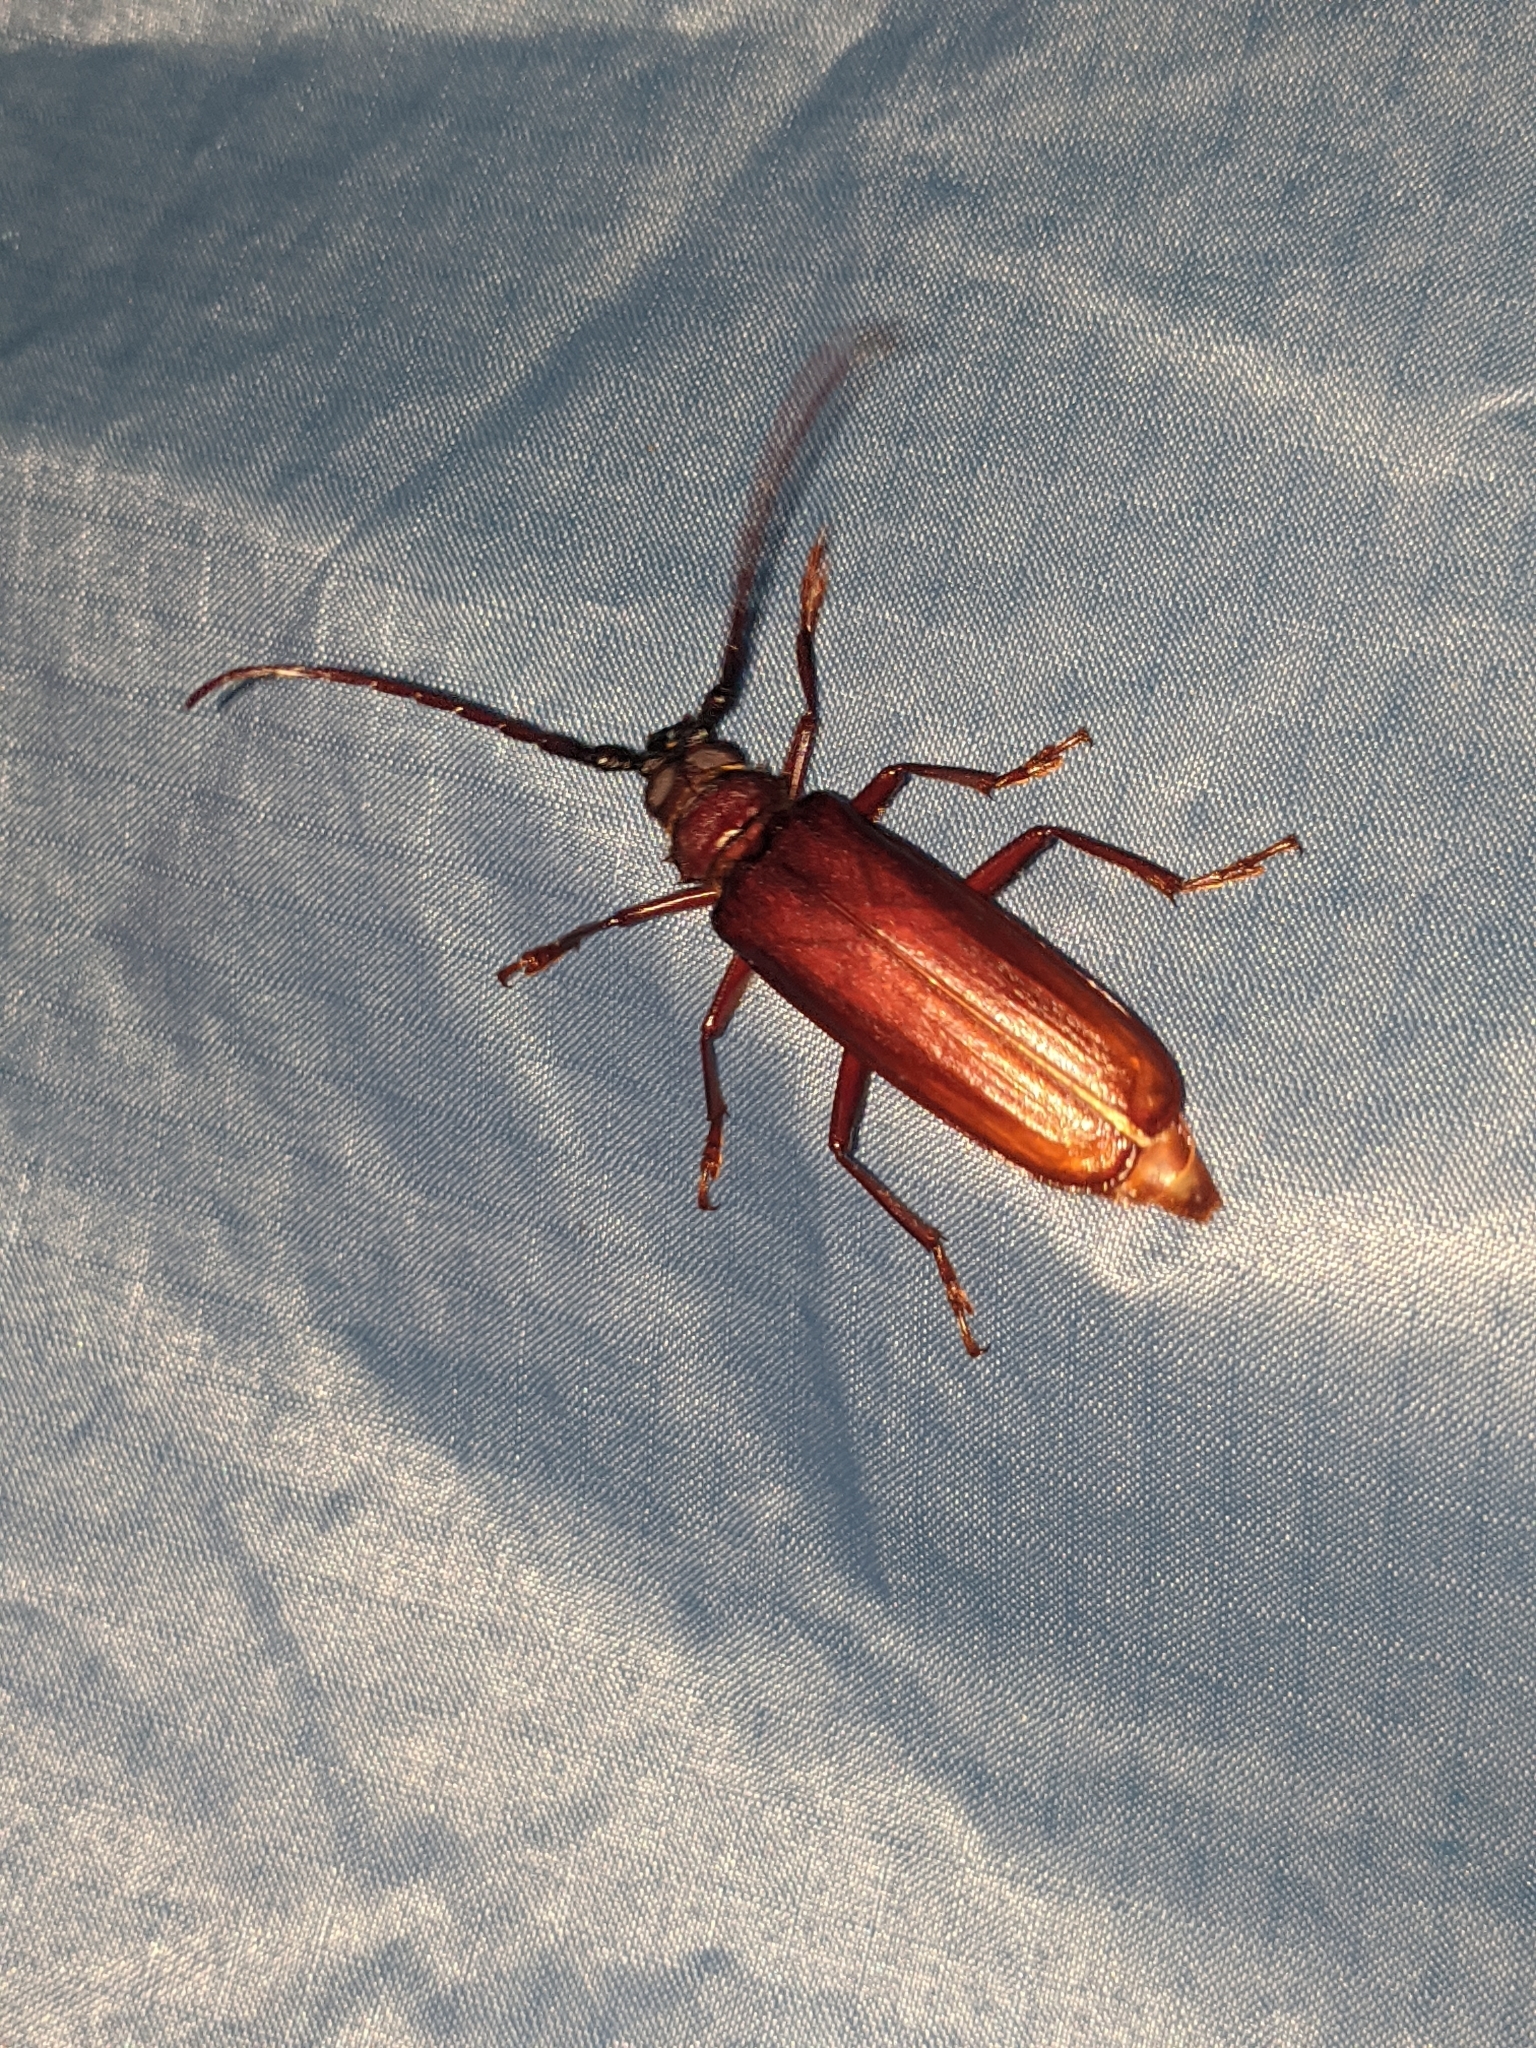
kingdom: Animalia
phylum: Arthropoda
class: Insecta
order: Coleoptera
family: Cerambycidae
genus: Orthosoma
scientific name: Orthosoma brunneum
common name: Brown prionid beetle
